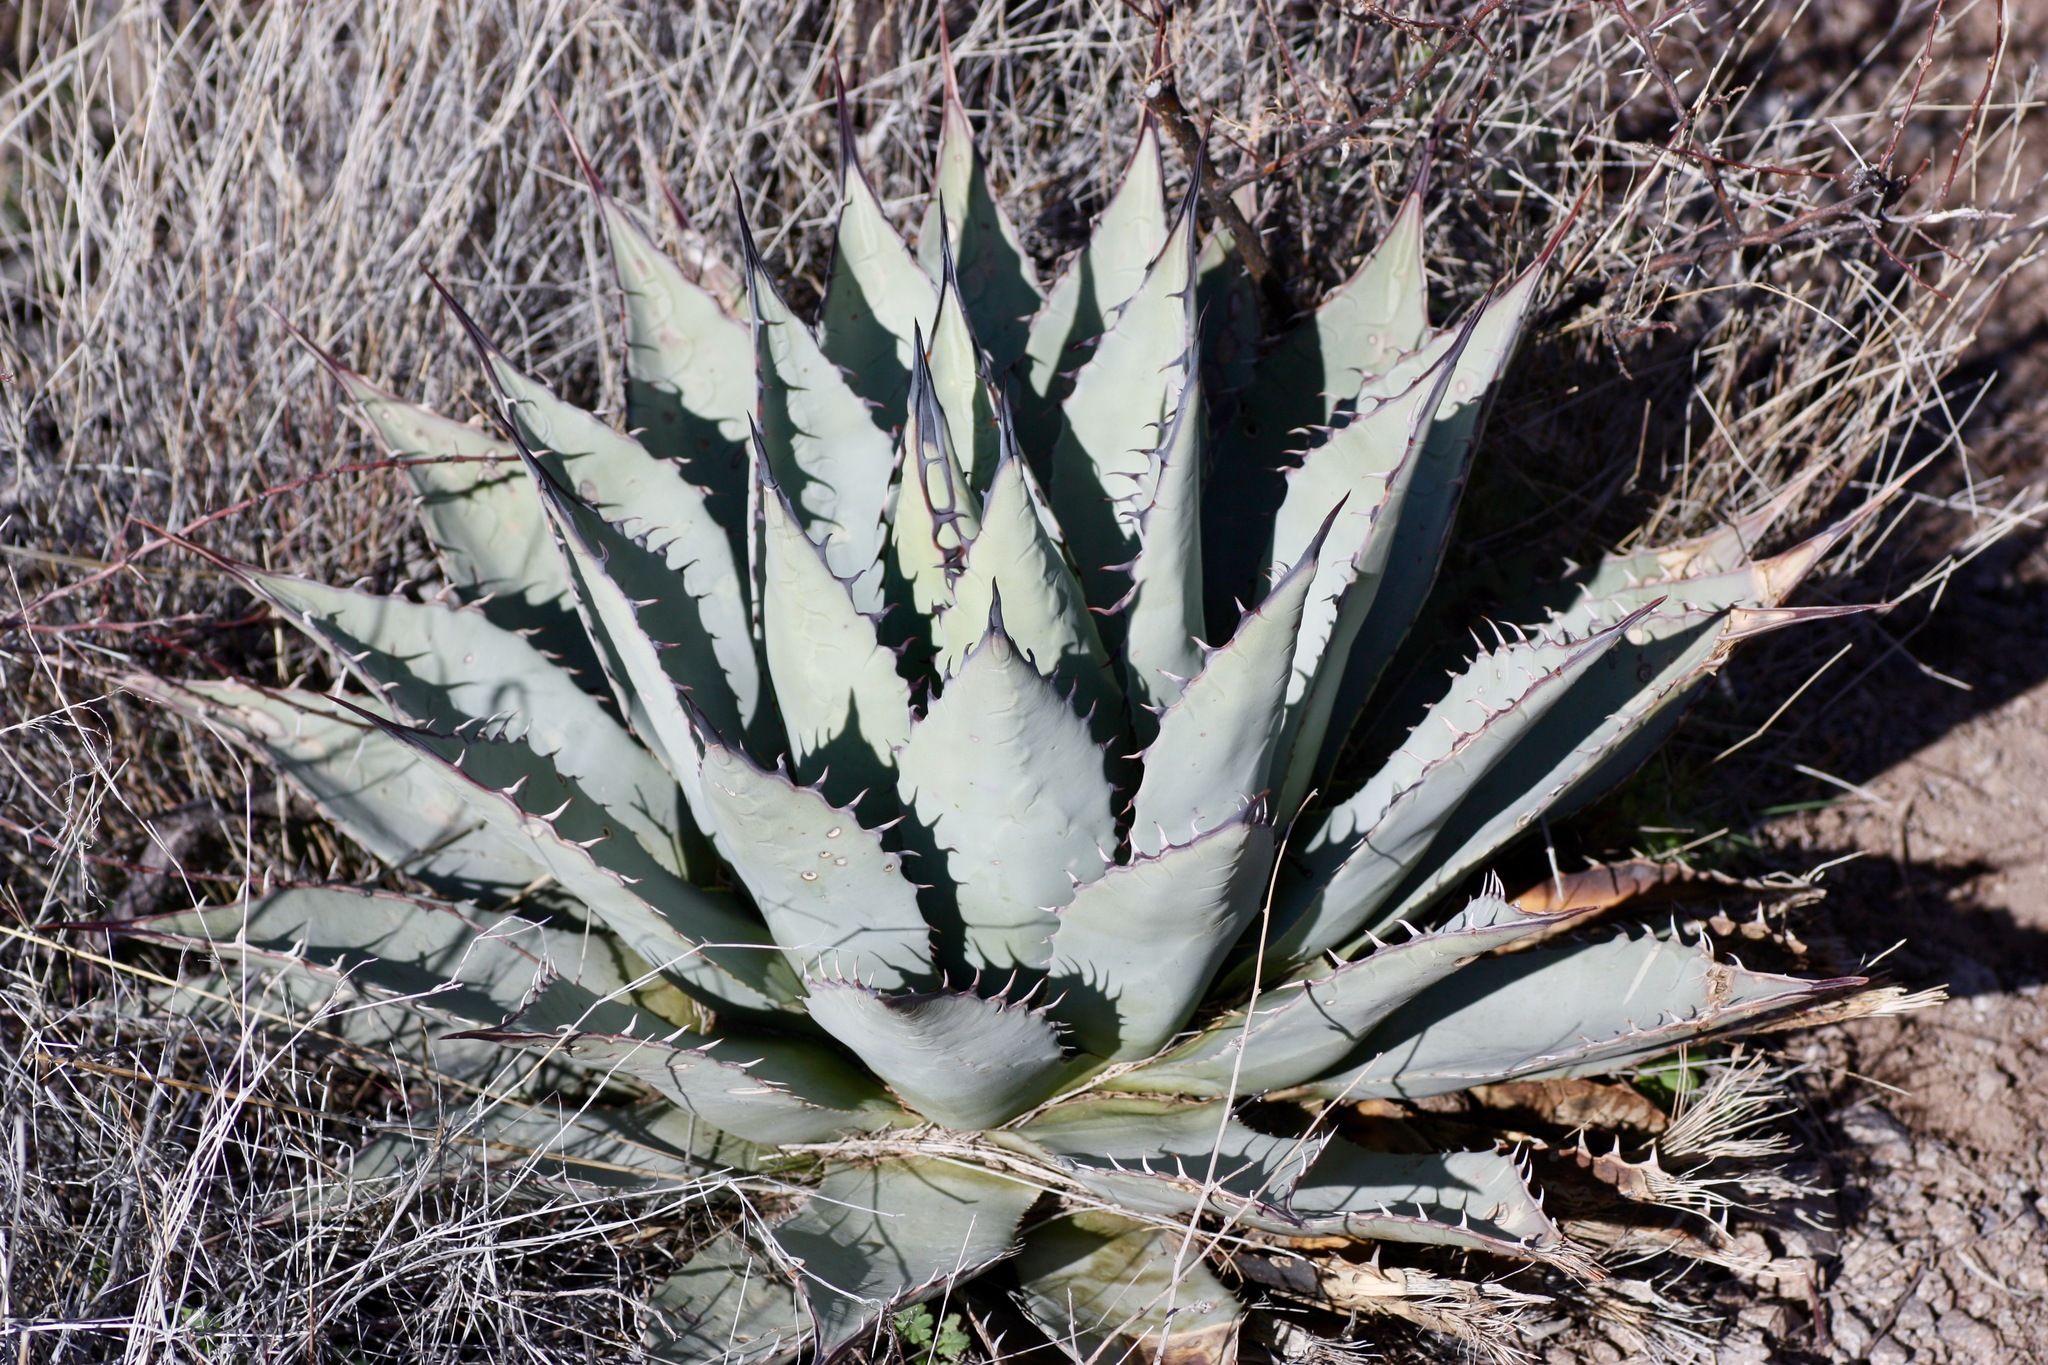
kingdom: Plantae
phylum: Tracheophyta
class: Liliopsida
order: Asparagales
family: Asparagaceae
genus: Agave
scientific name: Agave parryi
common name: Parry's agave
